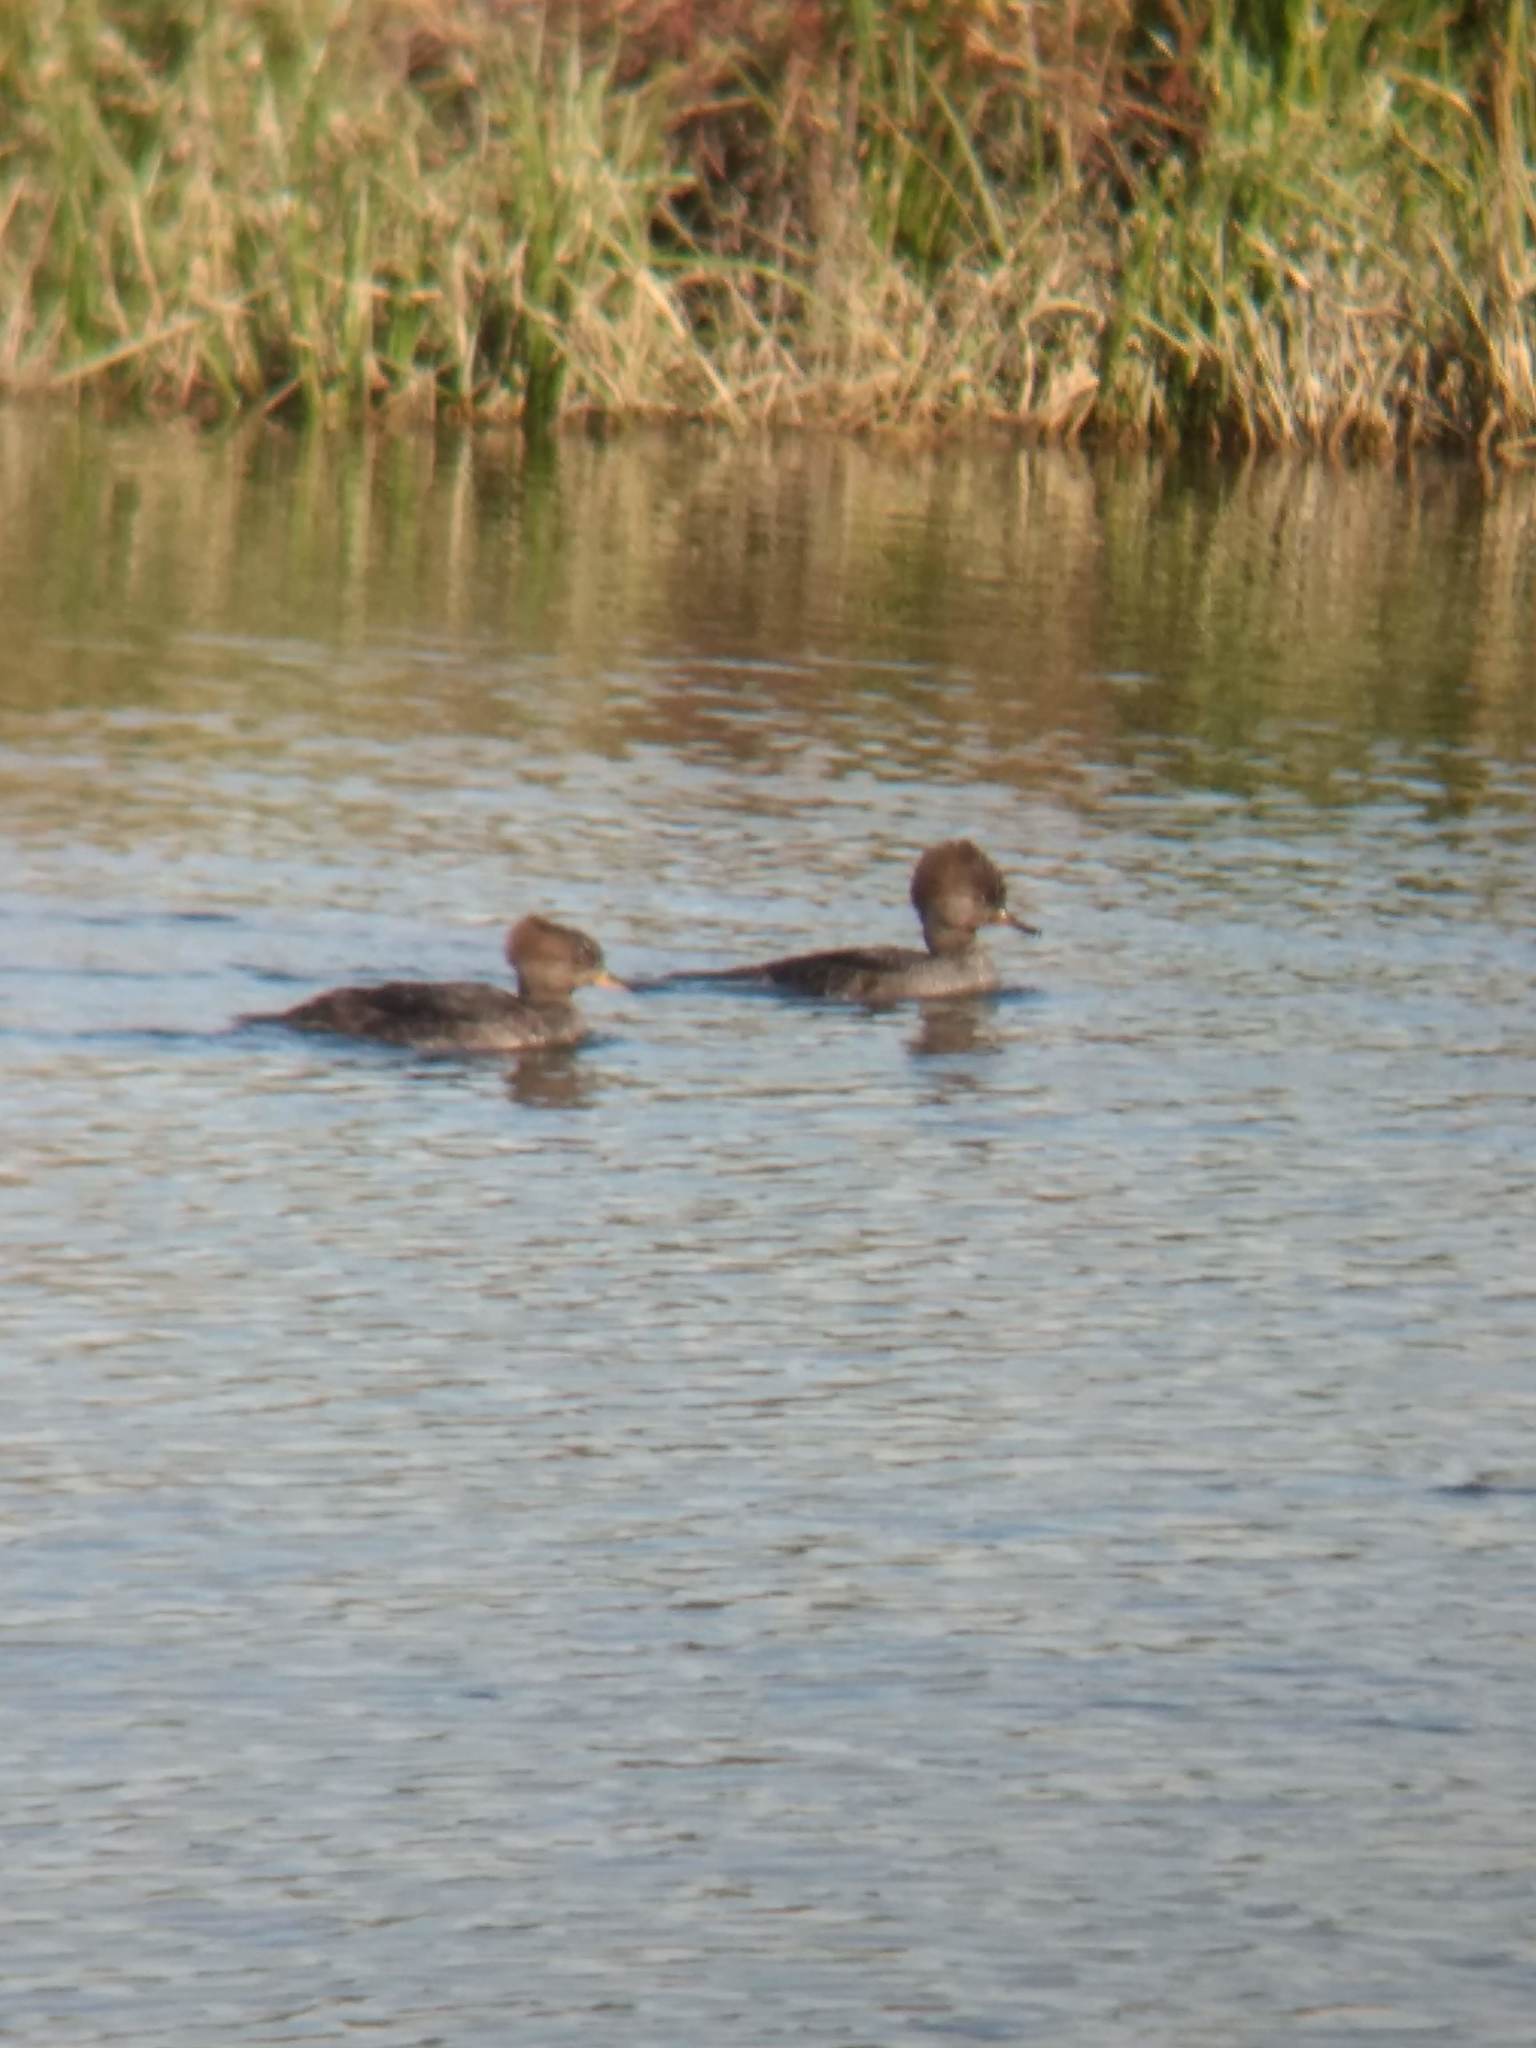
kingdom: Animalia
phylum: Chordata
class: Aves
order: Anseriformes
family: Anatidae
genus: Lophodytes
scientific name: Lophodytes cucullatus
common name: Hooded merganser
